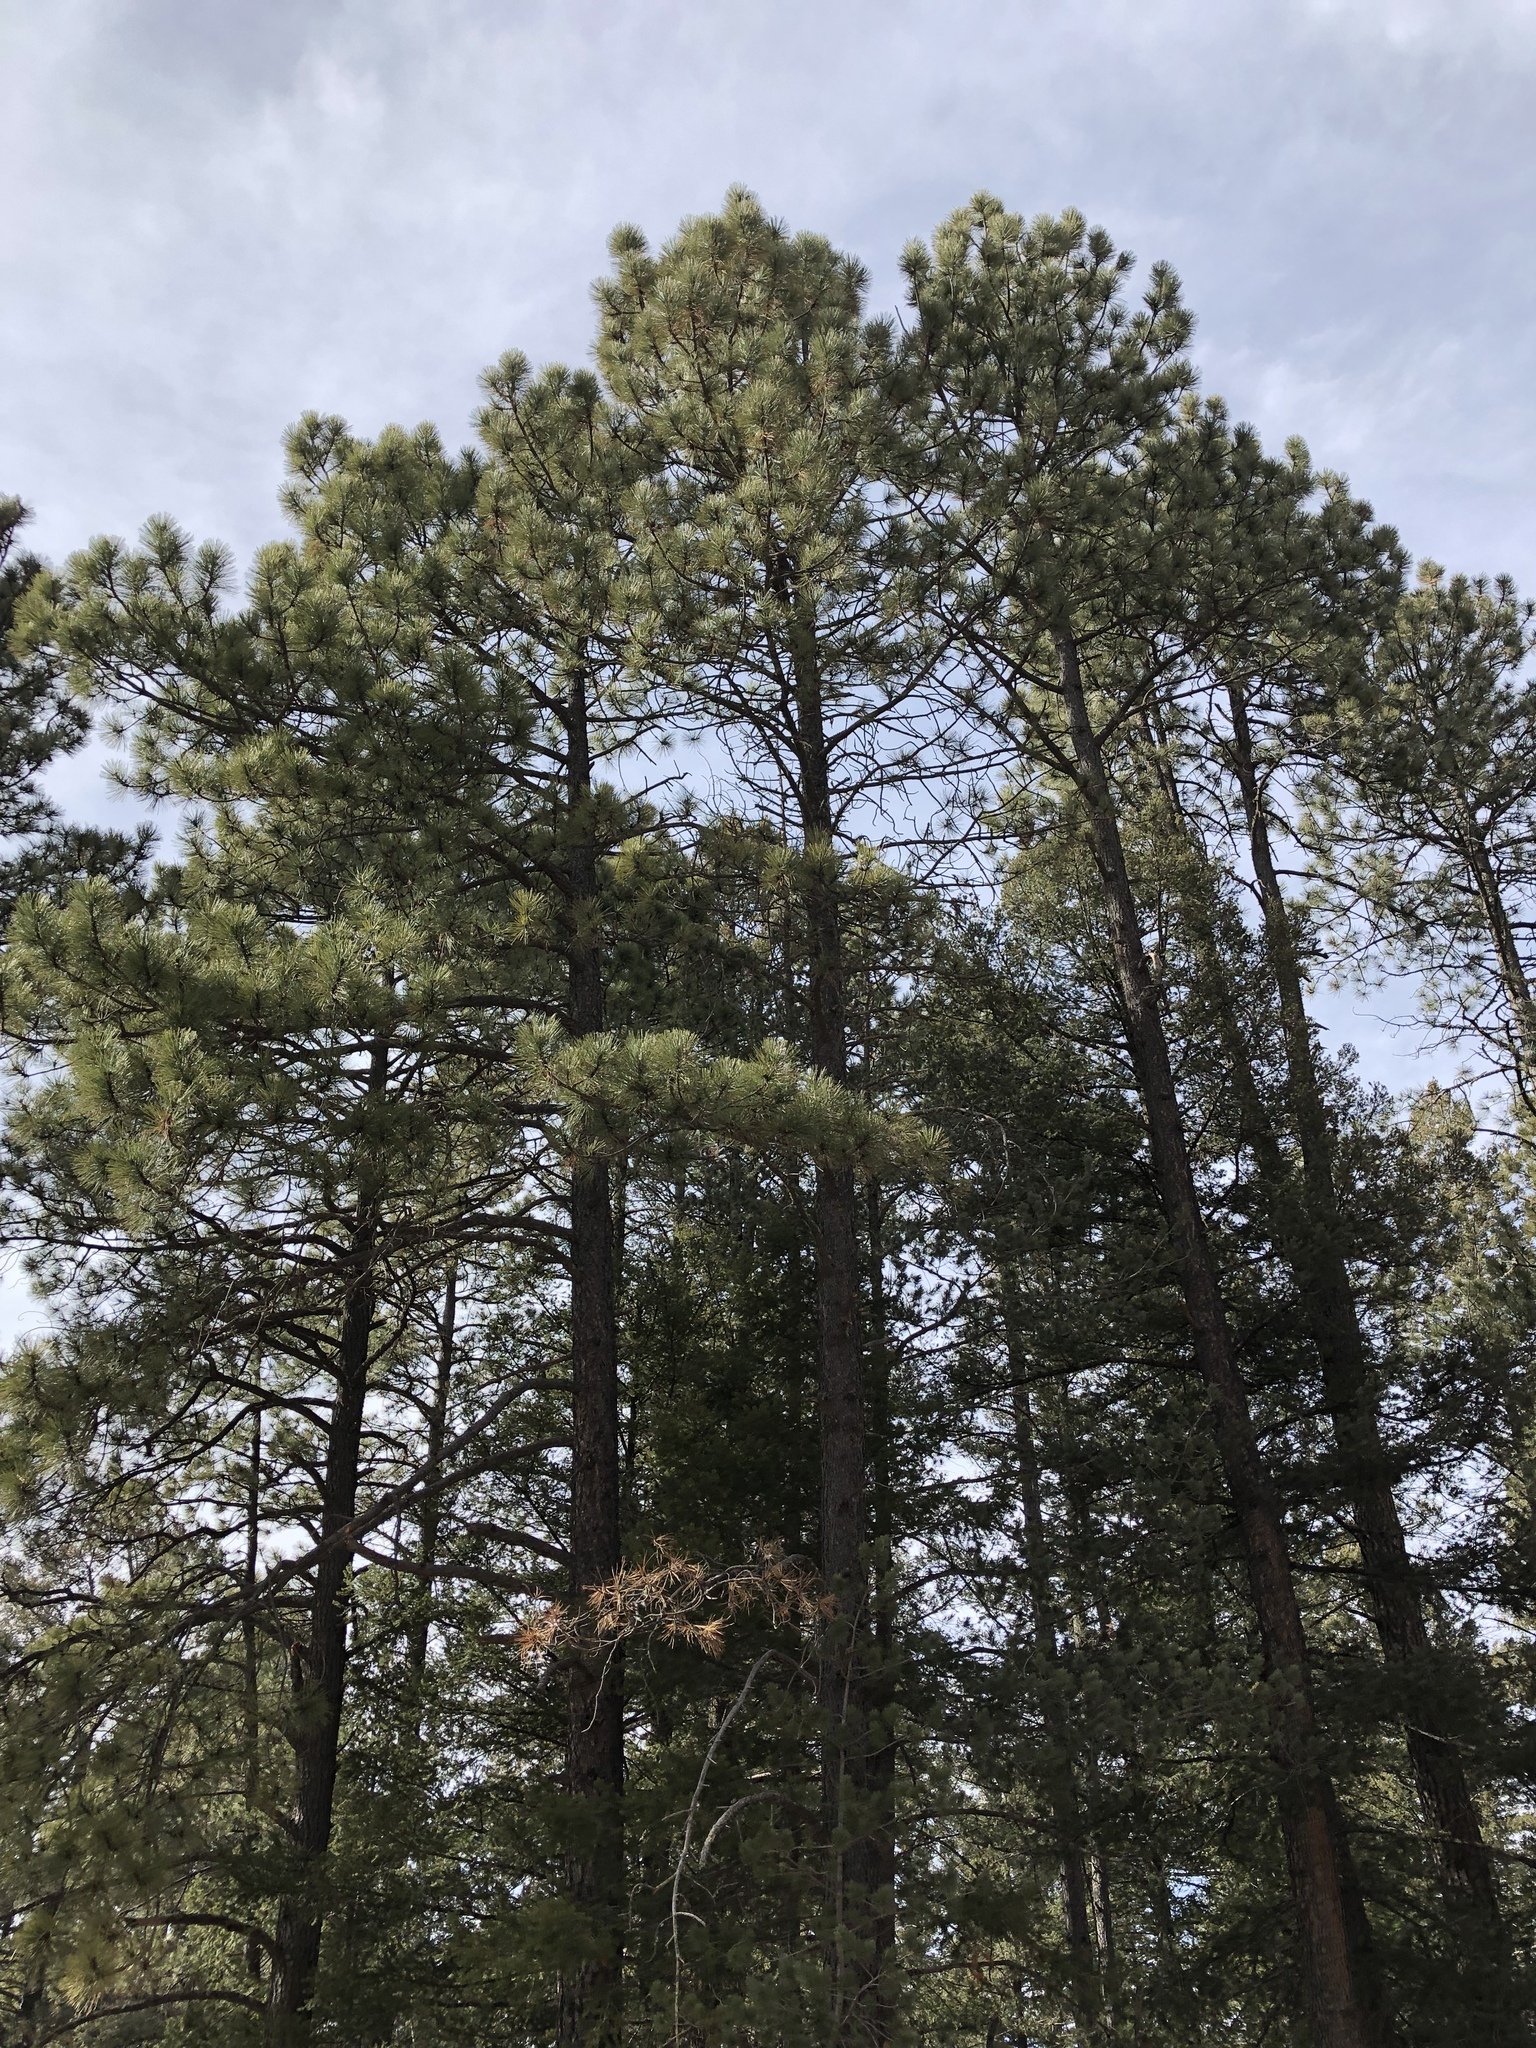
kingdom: Plantae
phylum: Tracheophyta
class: Pinopsida
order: Pinales
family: Pinaceae
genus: Pinus
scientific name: Pinus ponderosa
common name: Western yellow-pine
